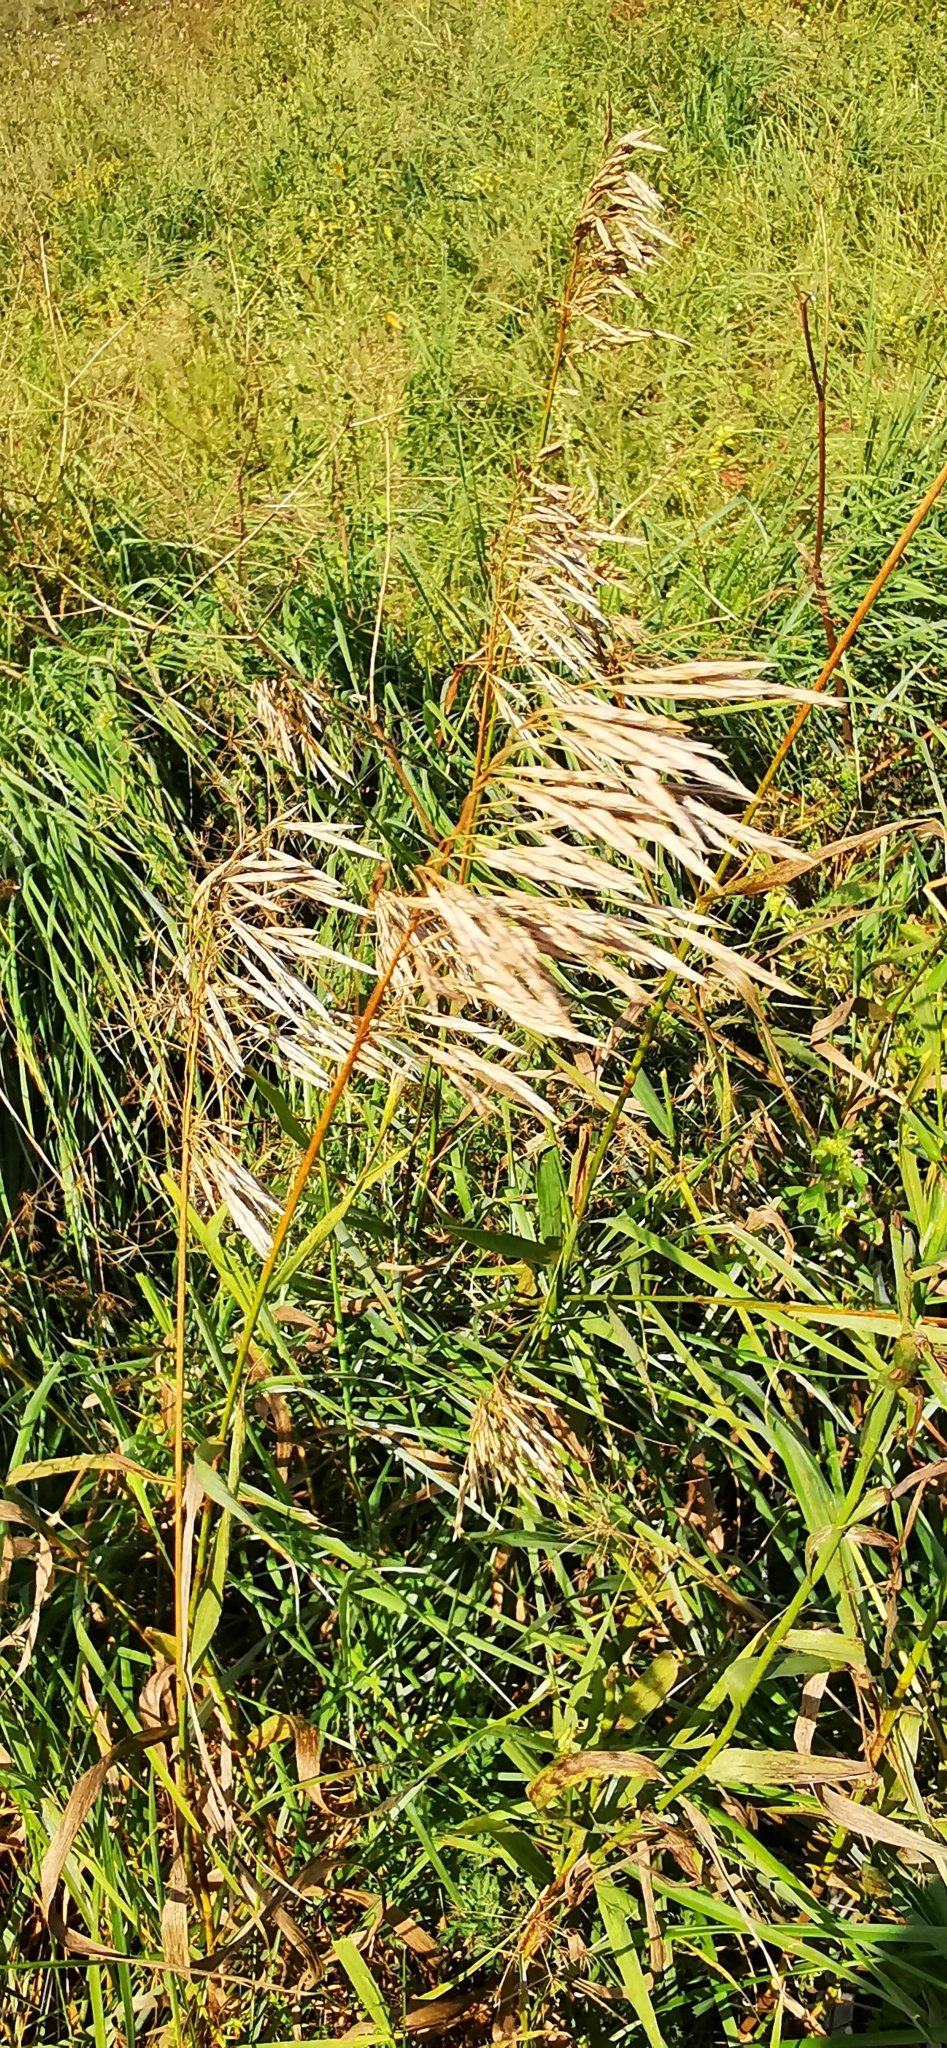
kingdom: Plantae
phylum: Tracheophyta
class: Liliopsida
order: Poales
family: Poaceae
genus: Bromus
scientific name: Bromus inermis
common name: Smooth brome
